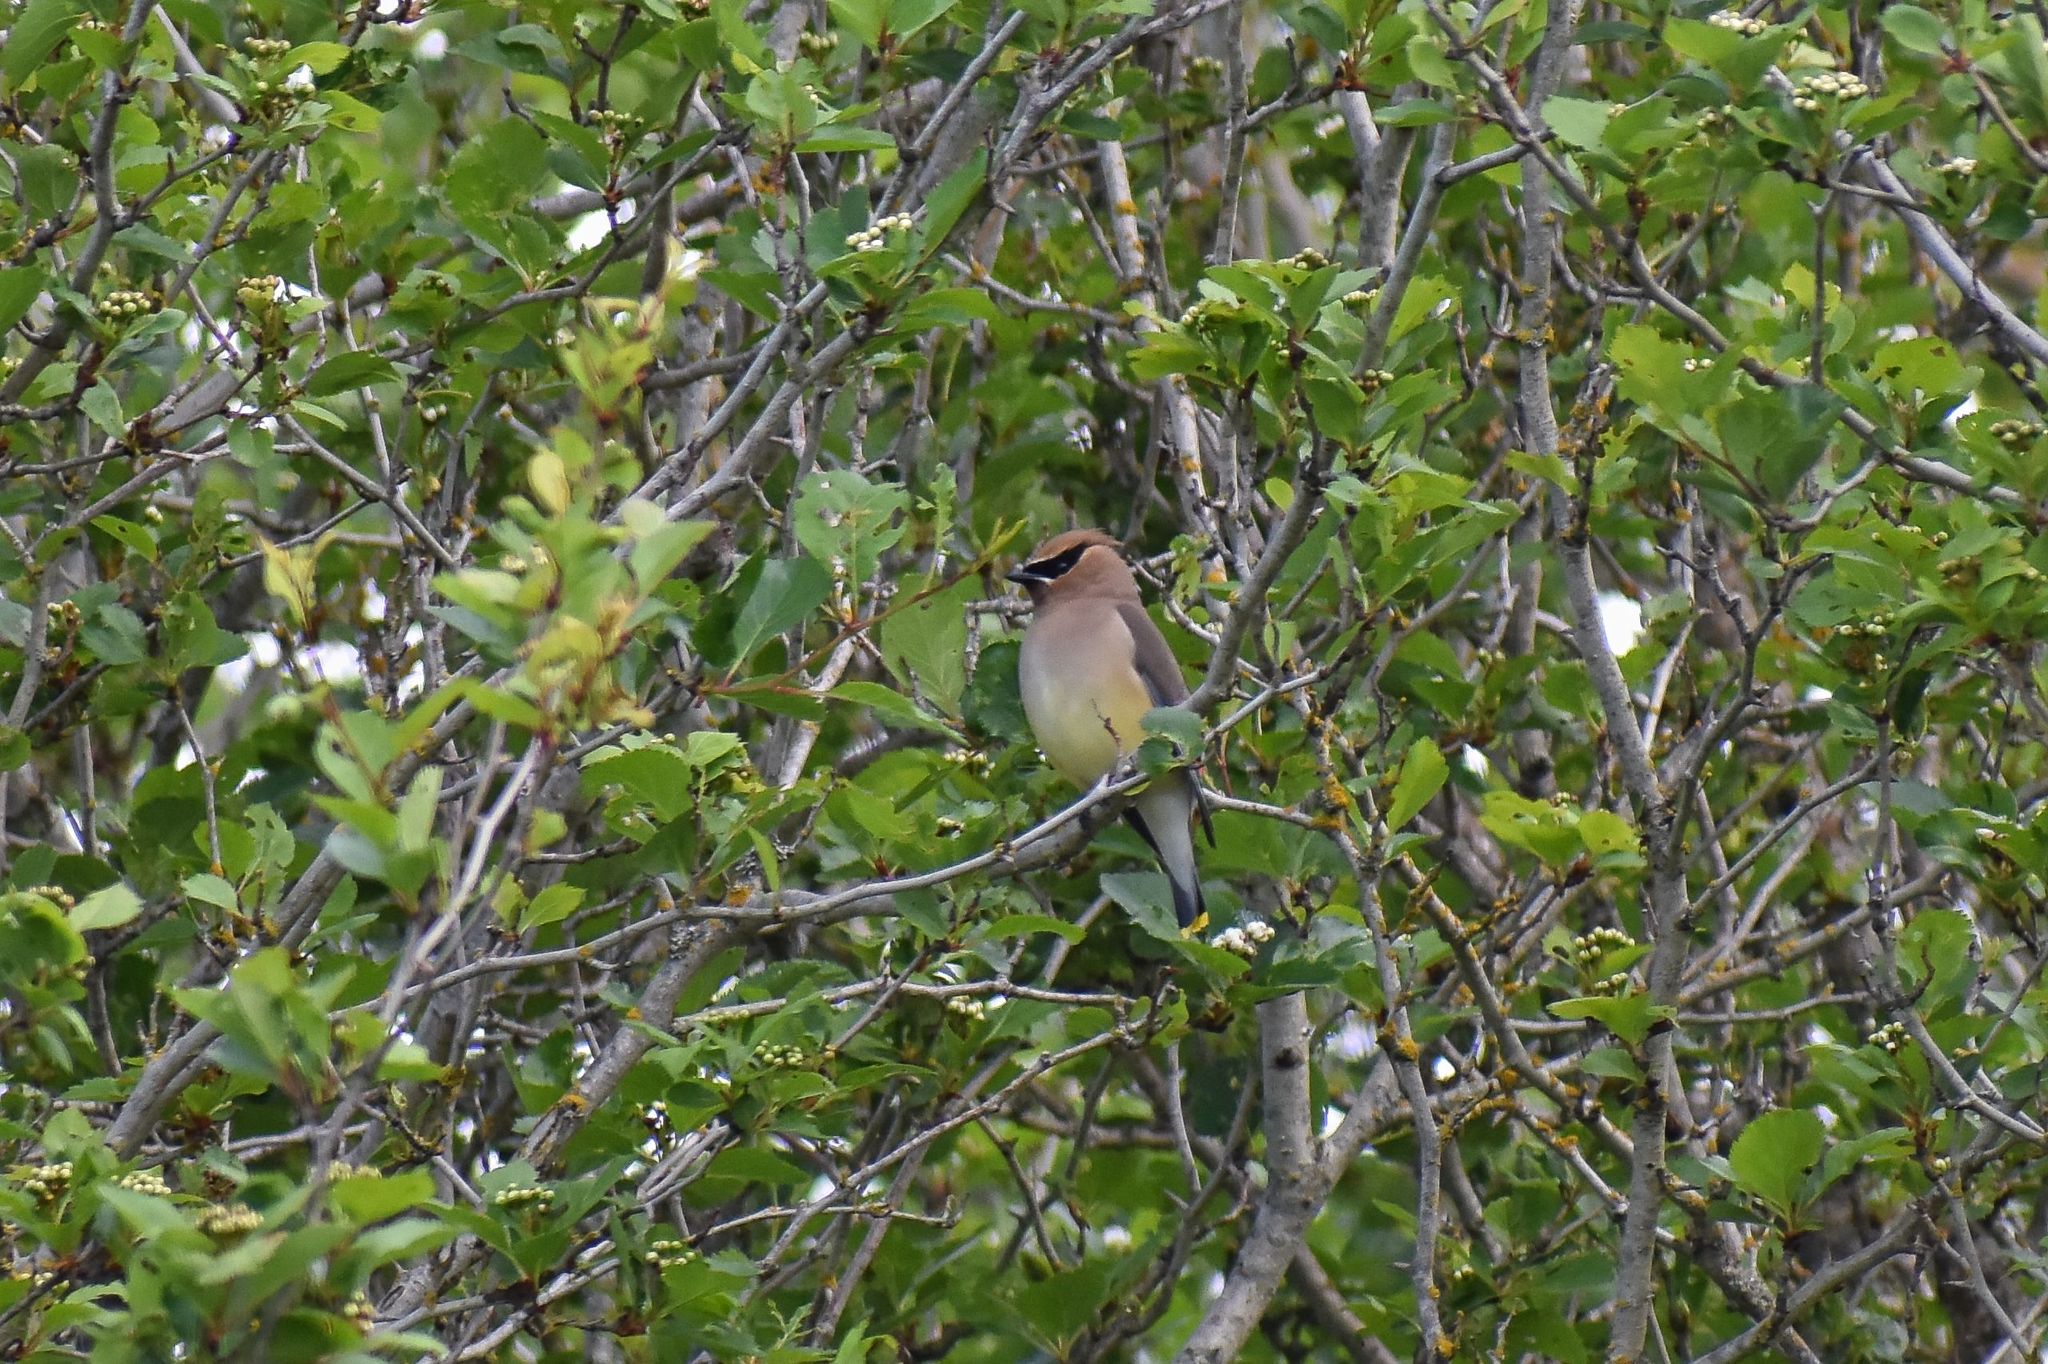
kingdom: Animalia
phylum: Chordata
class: Aves
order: Passeriformes
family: Bombycillidae
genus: Bombycilla
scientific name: Bombycilla cedrorum
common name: Cedar waxwing
